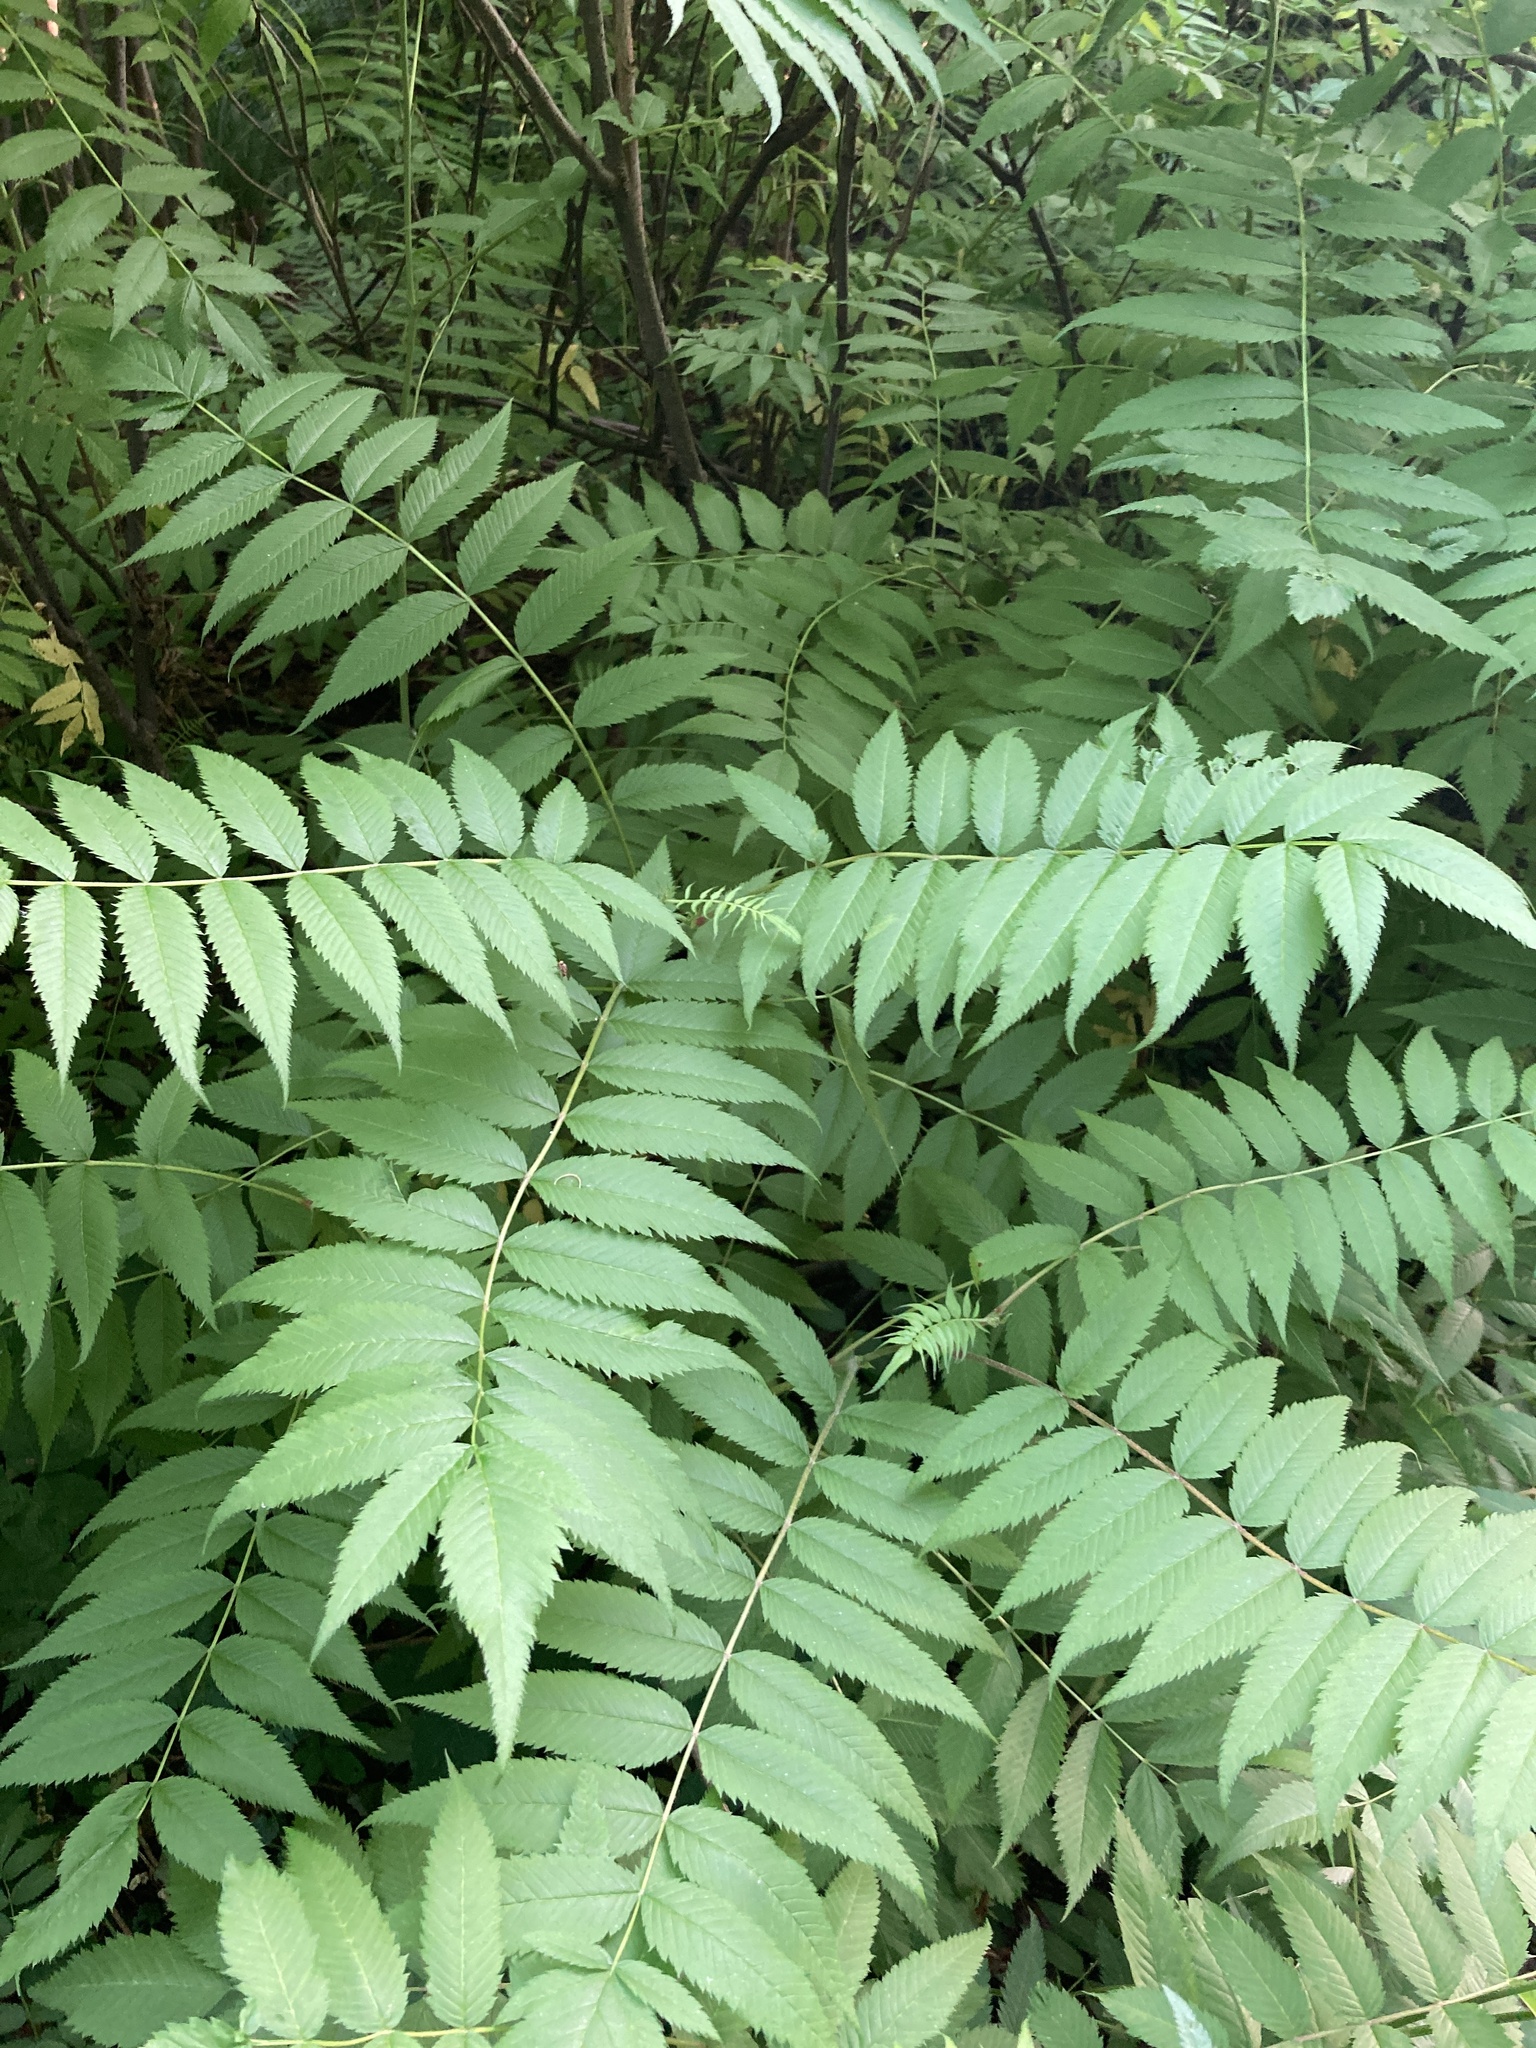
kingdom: Plantae
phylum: Tracheophyta
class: Magnoliopsida
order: Rosales
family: Rosaceae
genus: Sorbaria
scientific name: Sorbaria sorbifolia
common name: False spiraea
